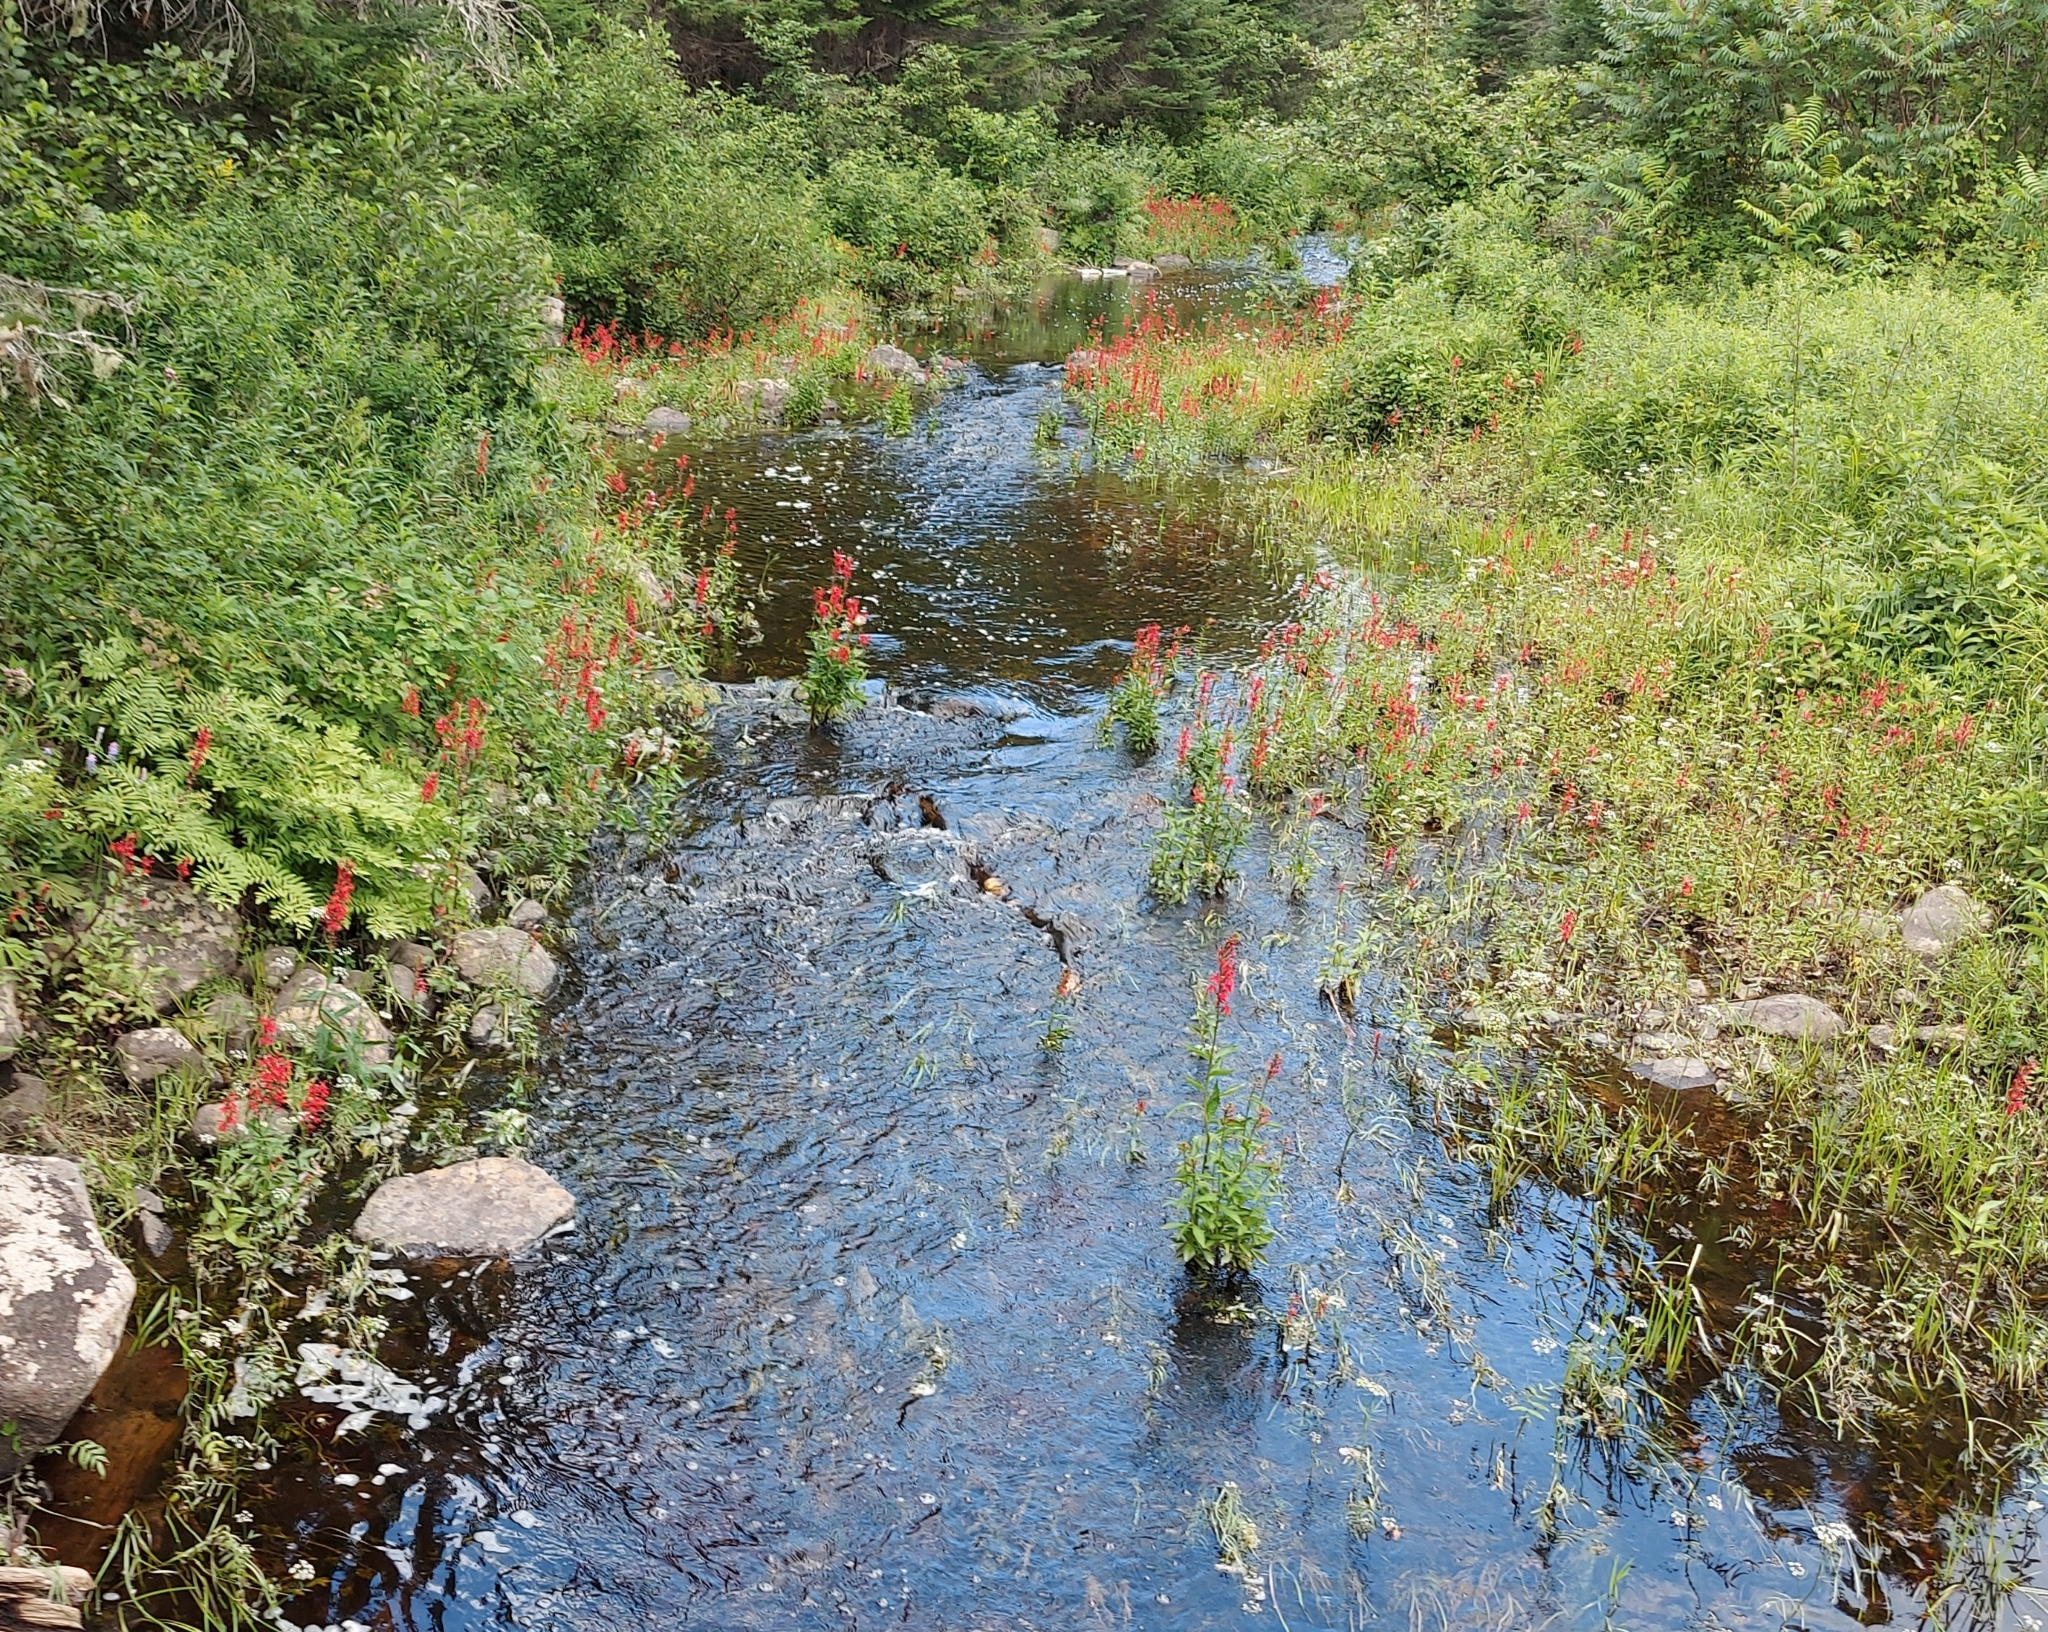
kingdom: Plantae
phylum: Tracheophyta
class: Magnoliopsida
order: Asterales
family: Campanulaceae
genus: Lobelia
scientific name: Lobelia cardinalis
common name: Cardinal flower
